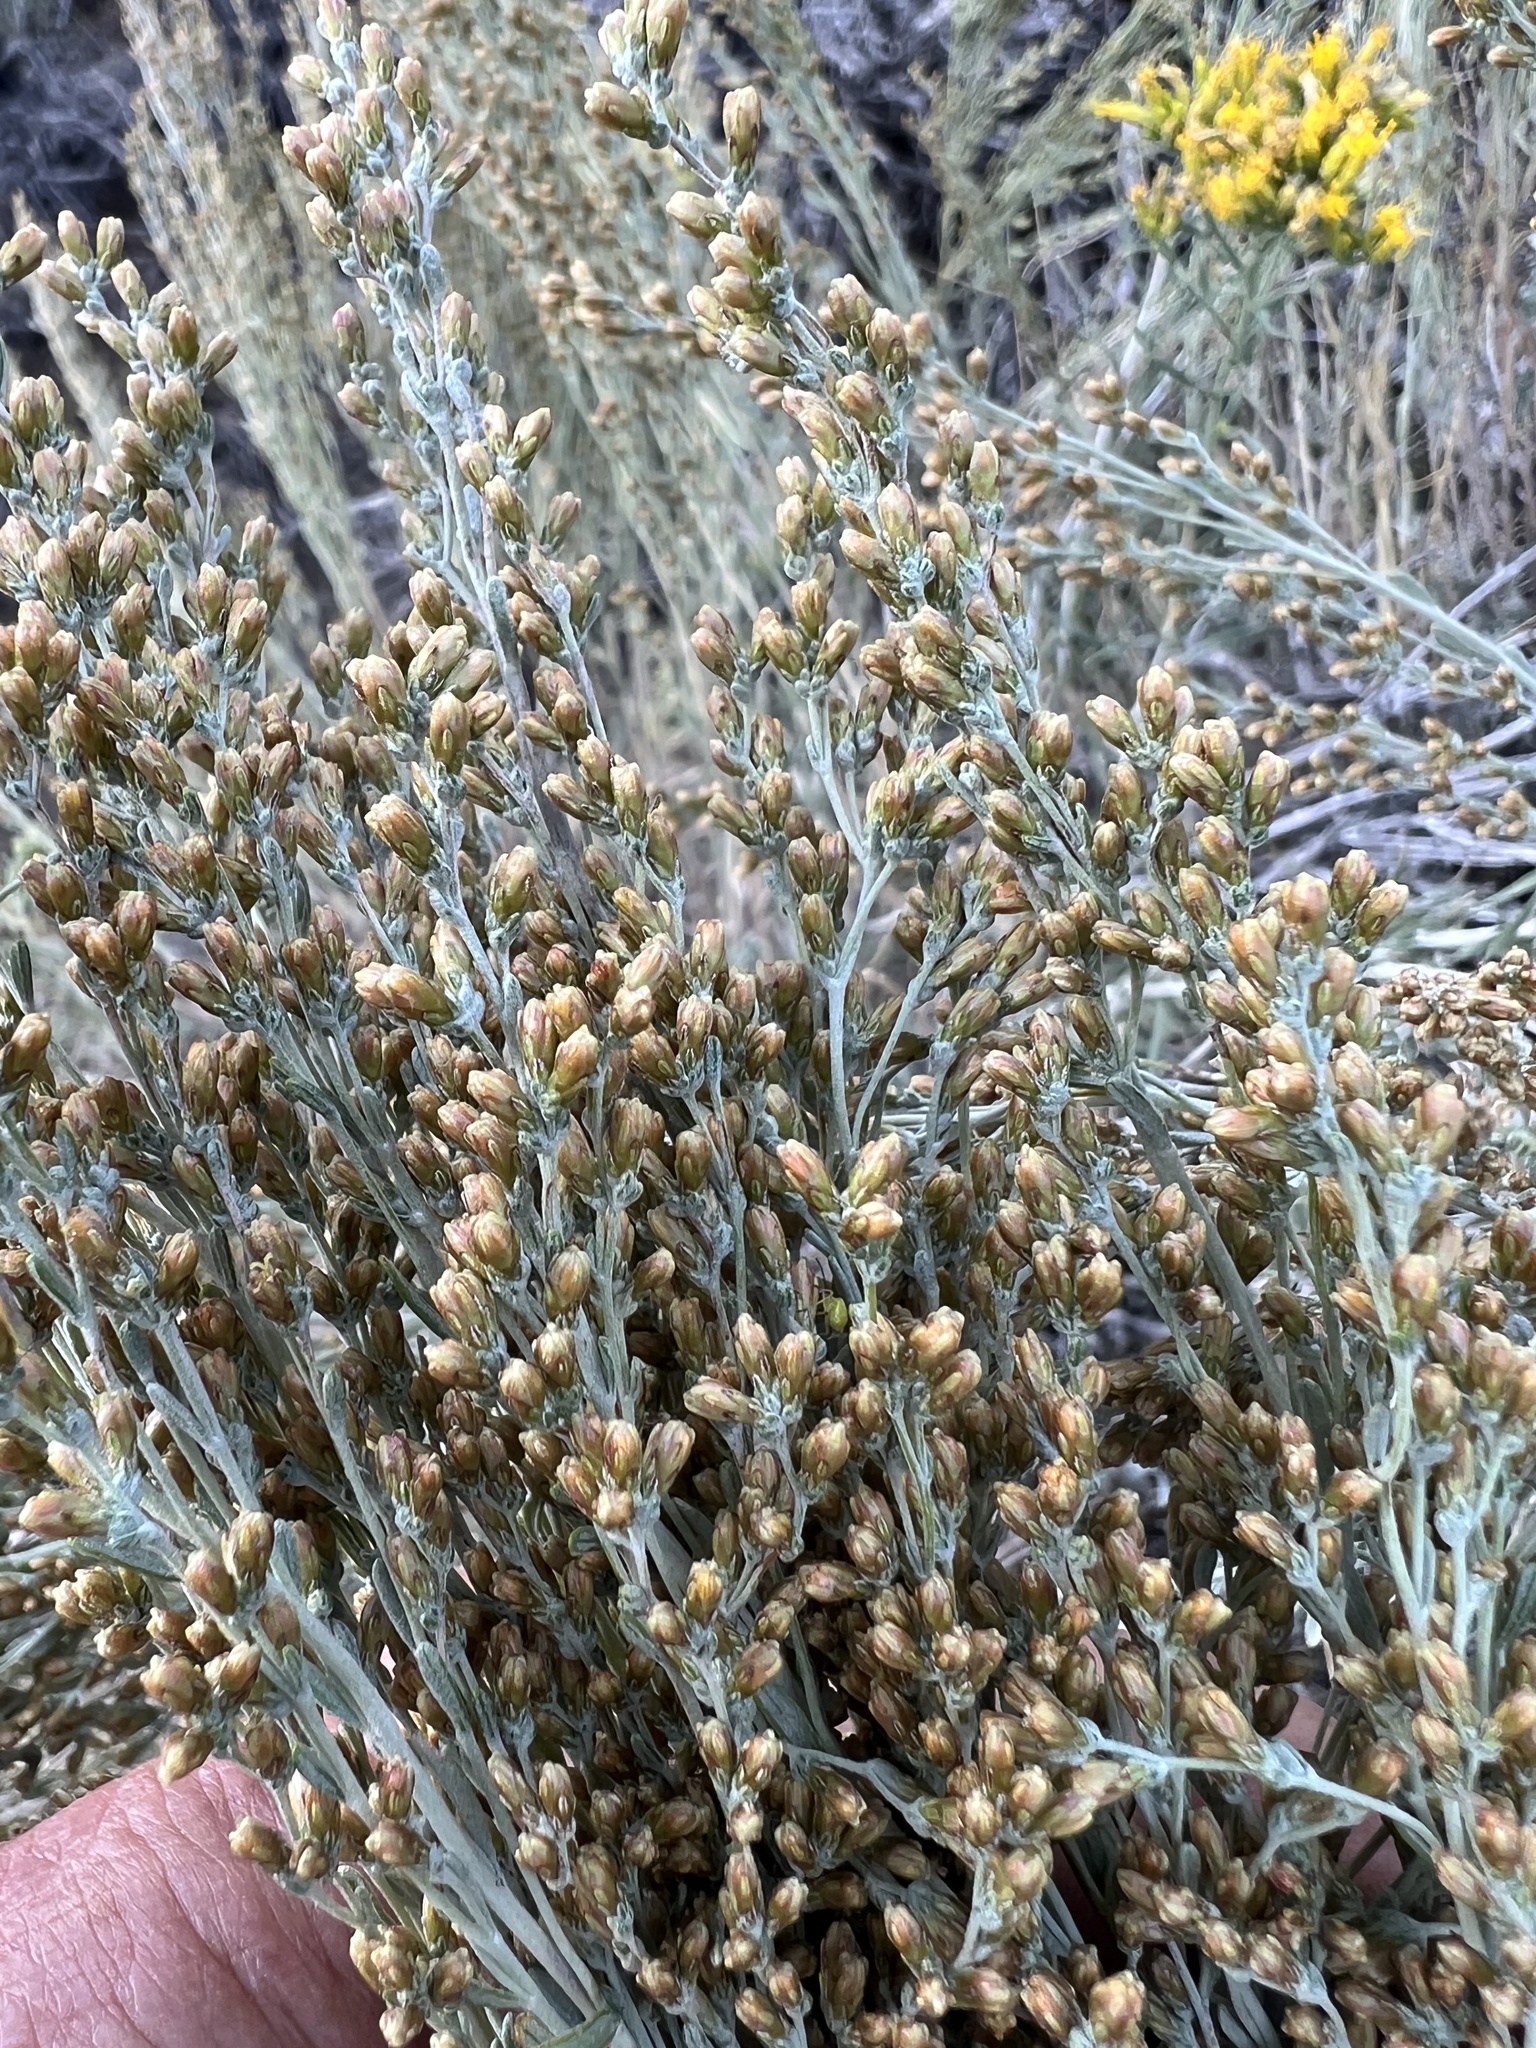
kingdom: Plantae
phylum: Tracheophyta
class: Magnoliopsida
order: Asterales
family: Asteraceae
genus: Artemisia
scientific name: Artemisia tridentata
